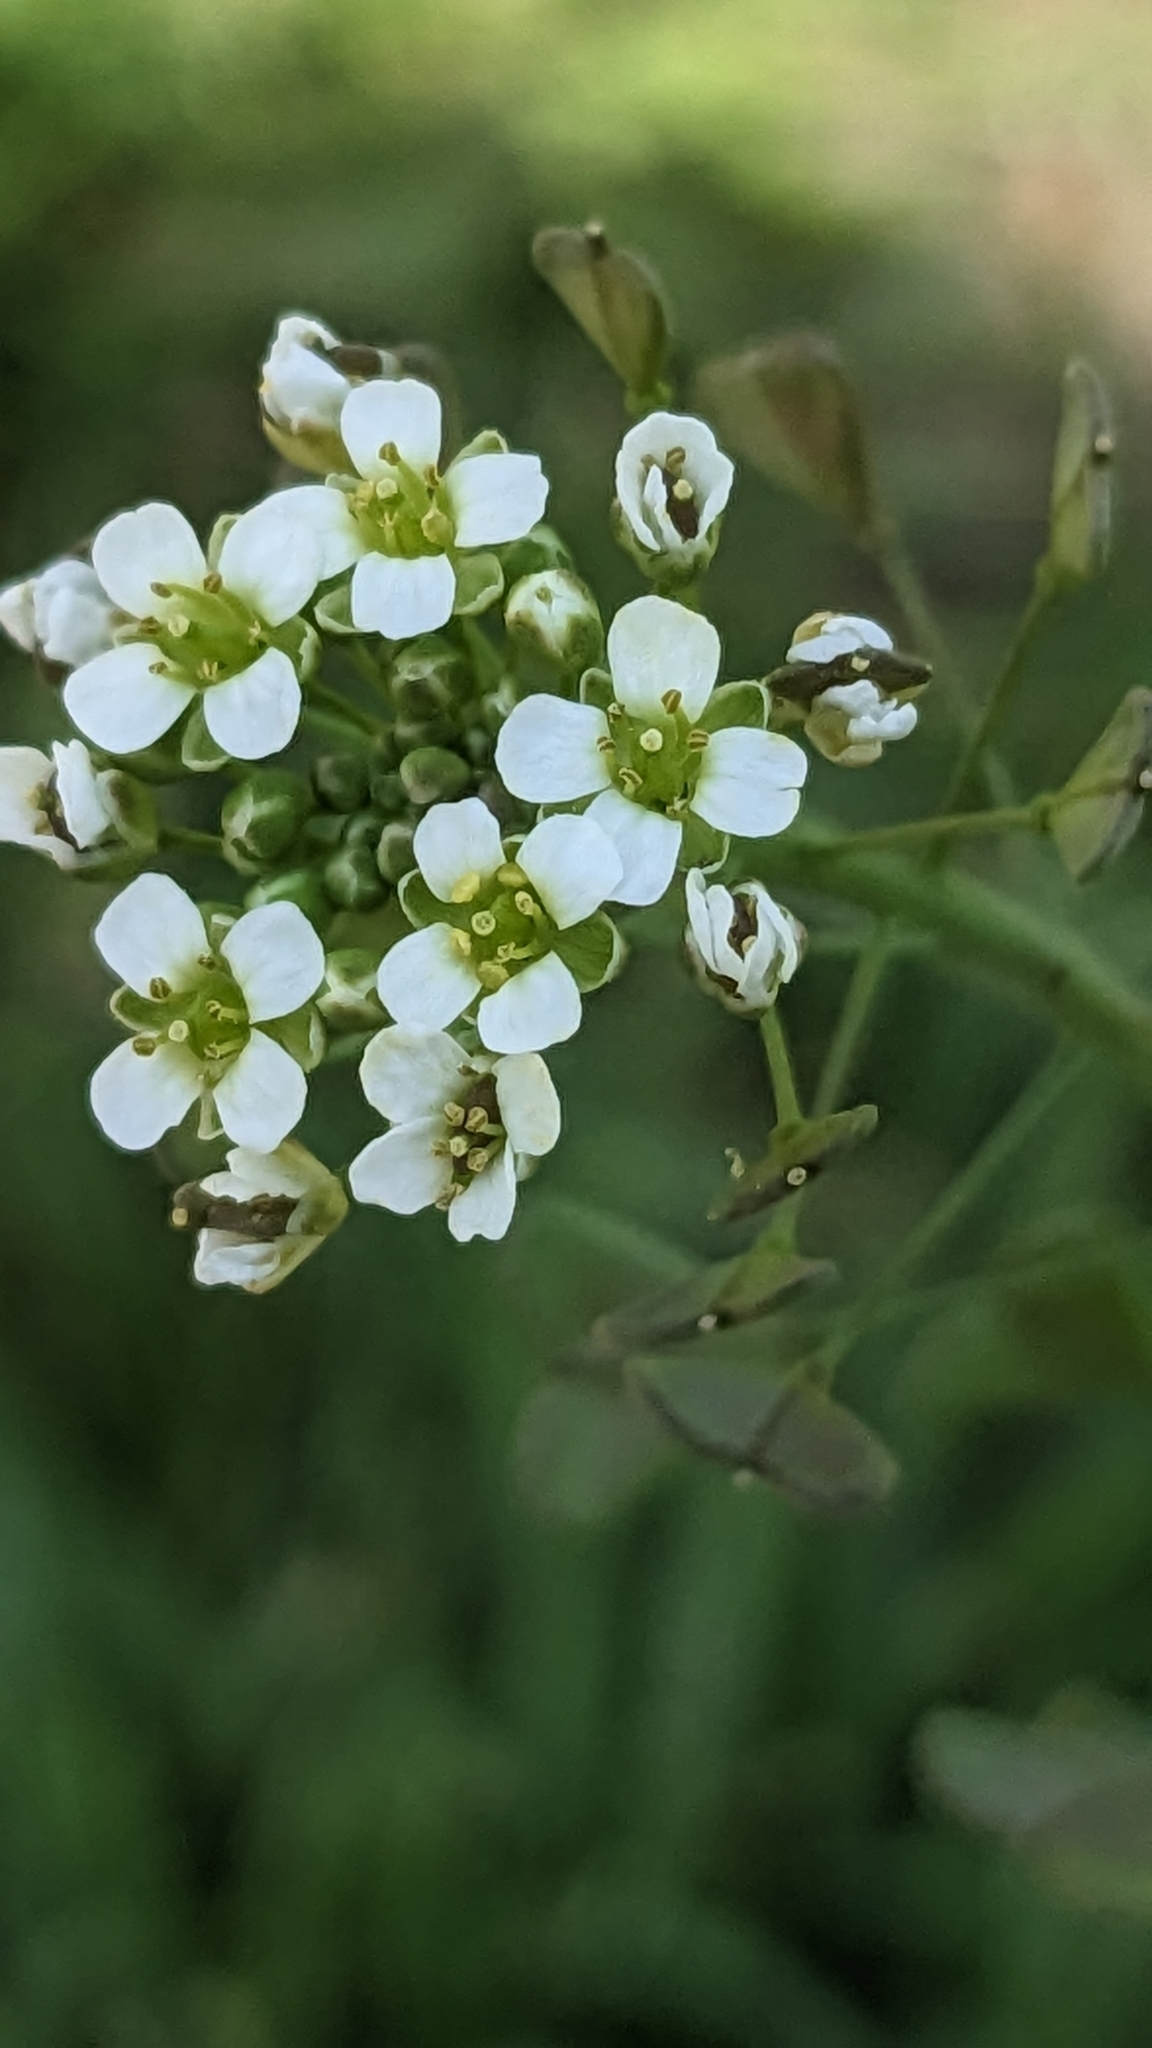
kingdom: Plantae
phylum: Tracheophyta
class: Magnoliopsida
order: Brassicales
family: Brassicaceae
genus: Capsella
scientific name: Capsella bursa-pastoris
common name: Shepherd's purse
